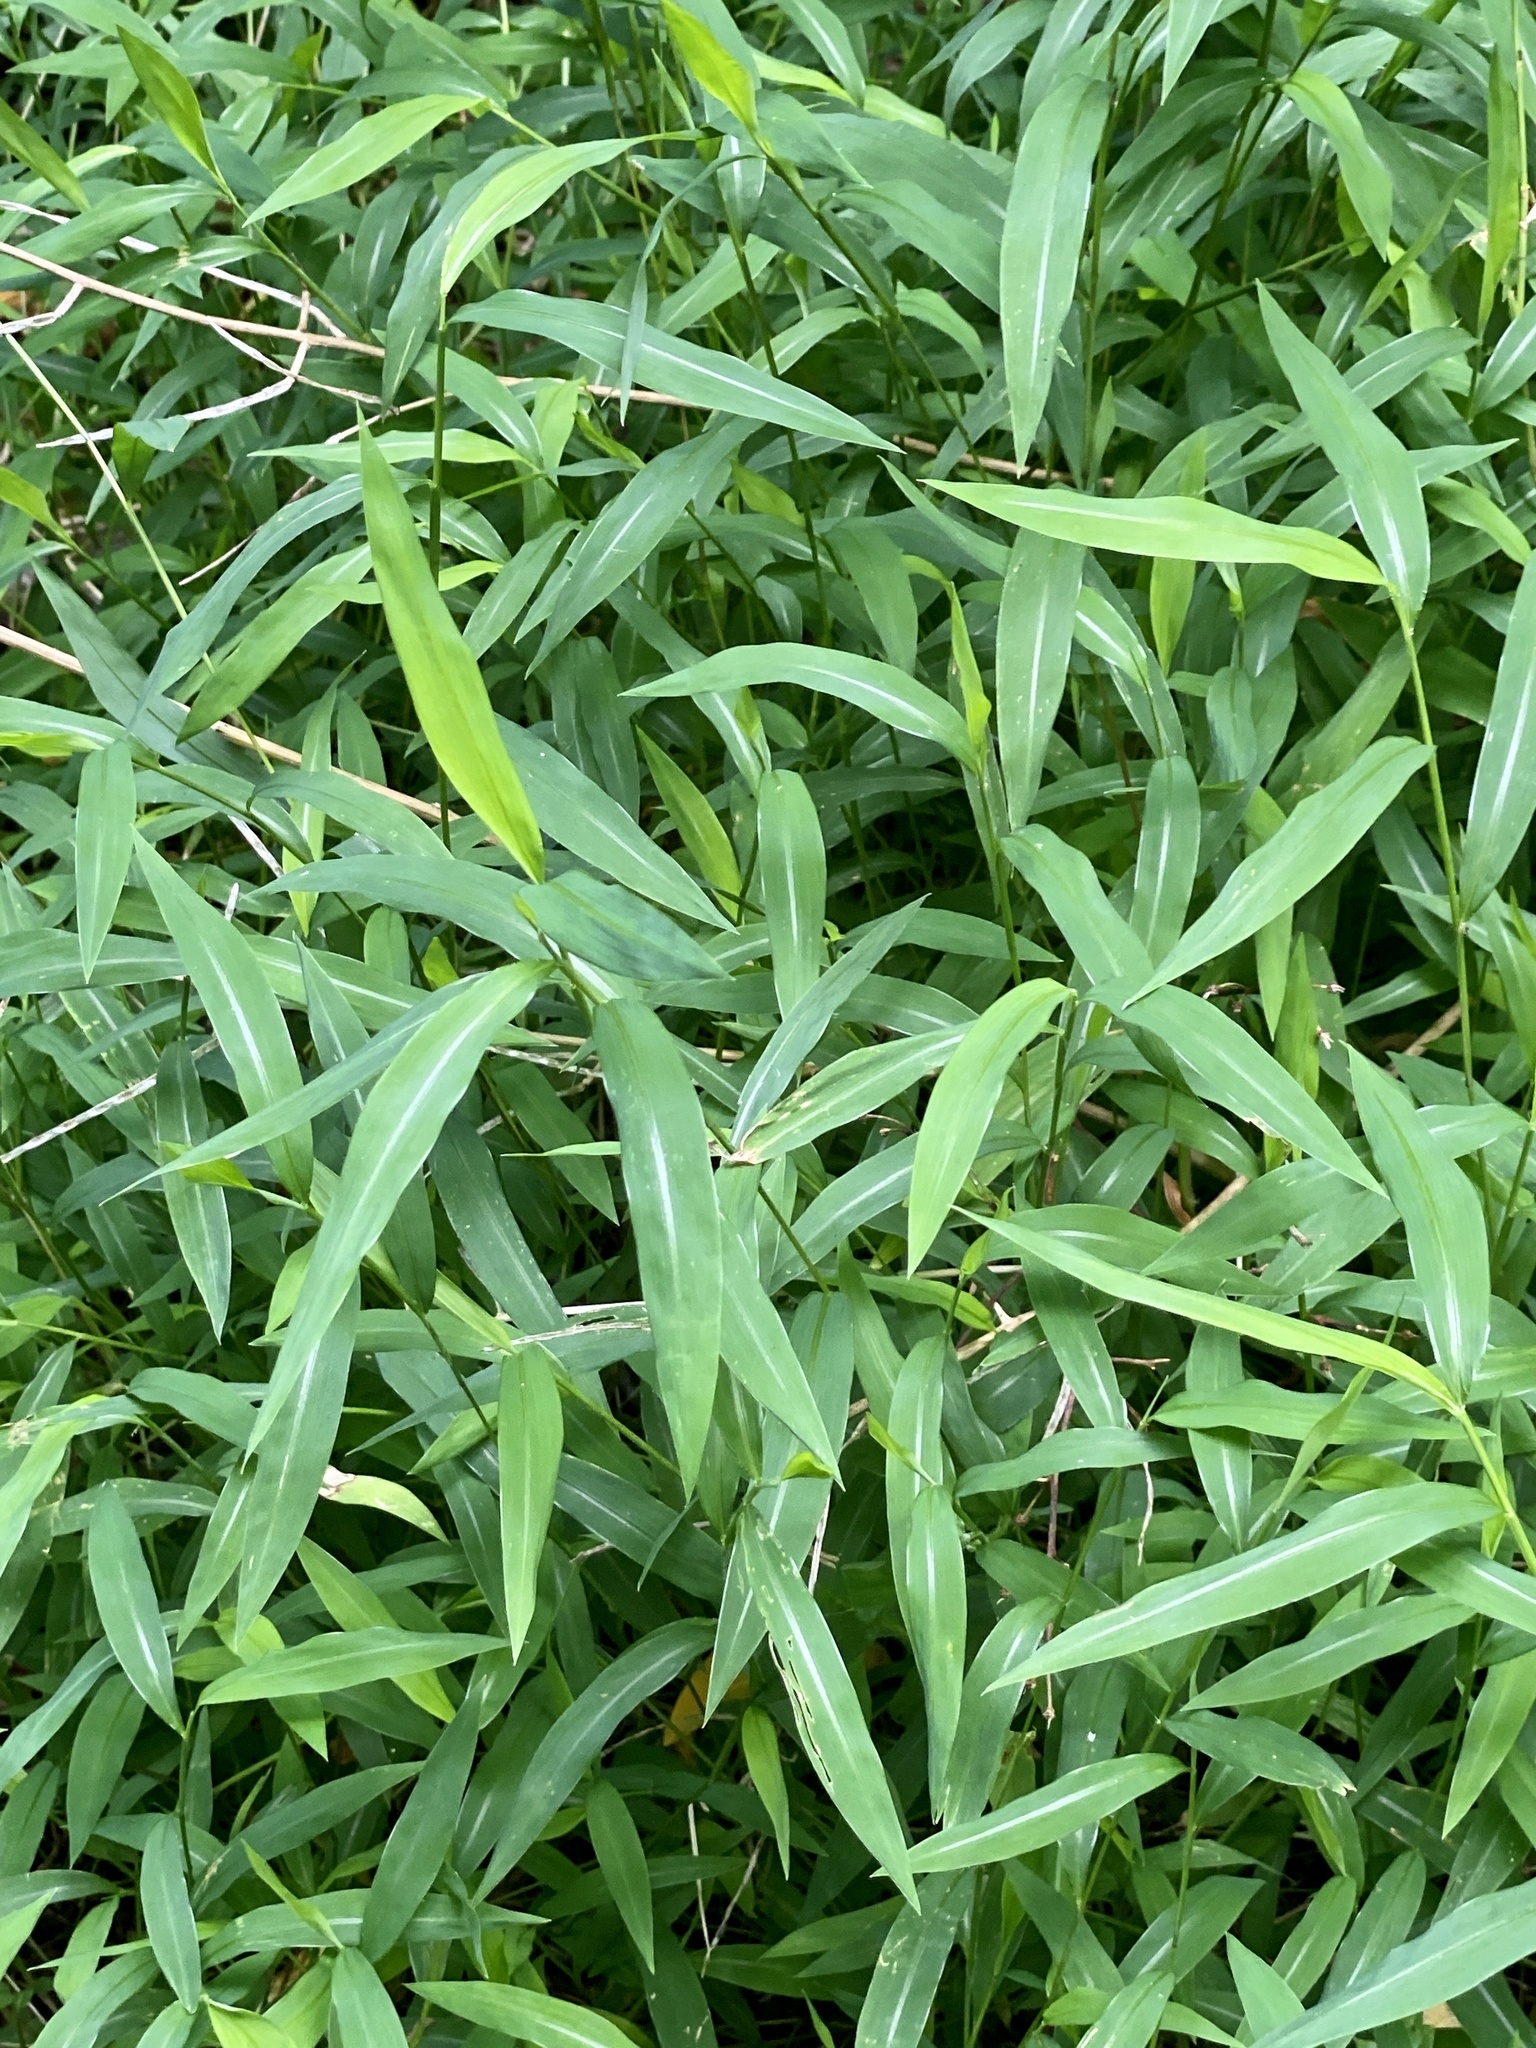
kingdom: Plantae
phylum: Tracheophyta
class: Liliopsida
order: Poales
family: Poaceae
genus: Microstegium
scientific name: Microstegium vimineum
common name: Japanese stiltgrass
